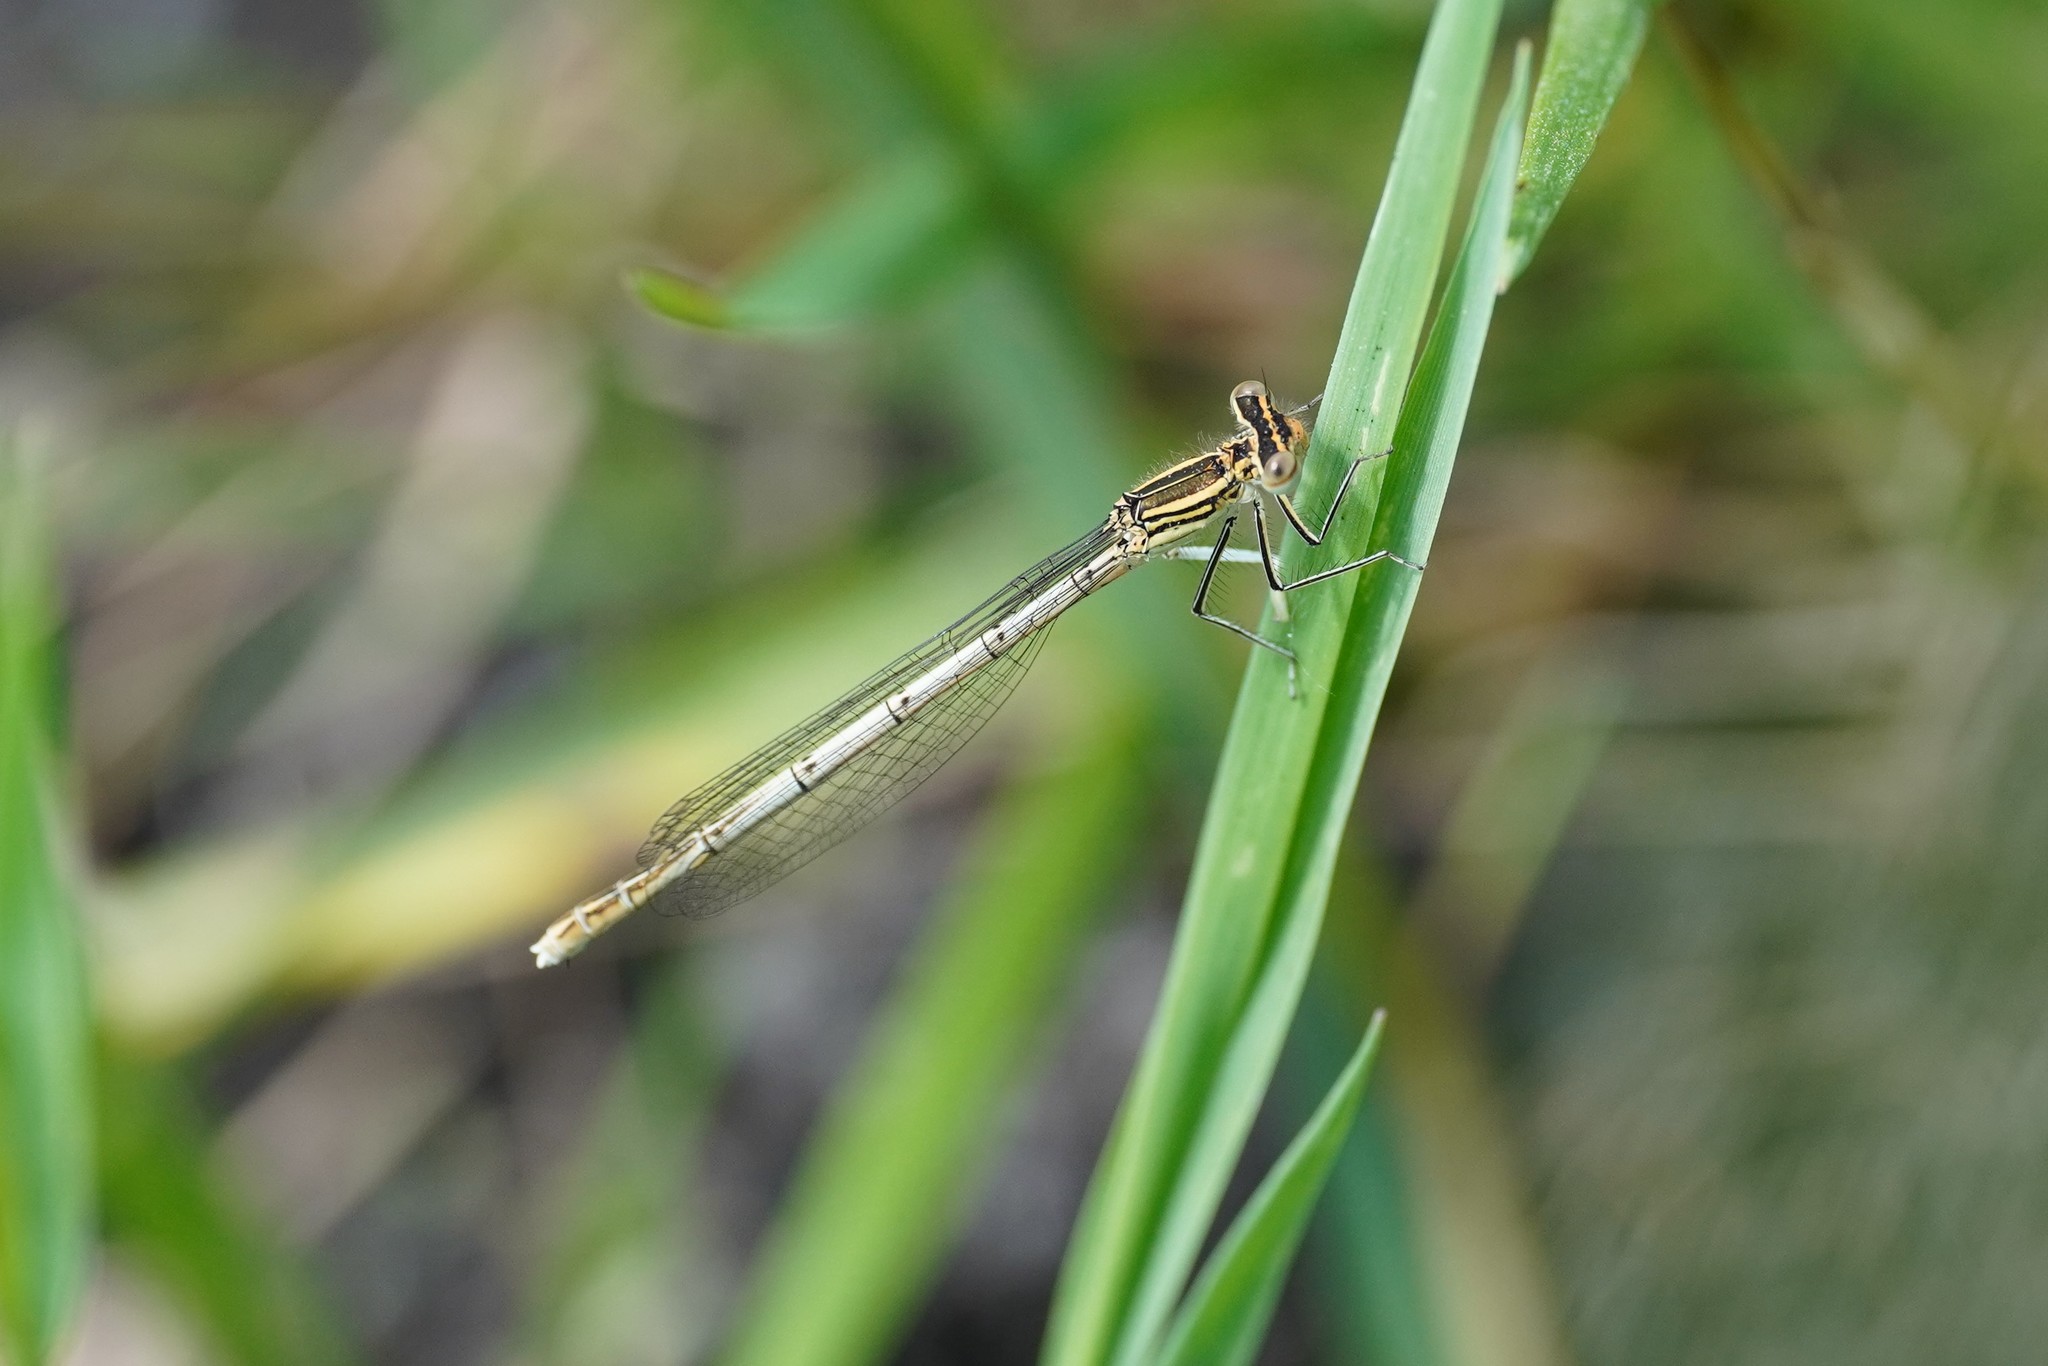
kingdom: Animalia
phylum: Arthropoda
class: Insecta
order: Odonata
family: Platycnemididae
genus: Platycnemis
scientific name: Platycnemis pennipes
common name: White-legged damselfly
